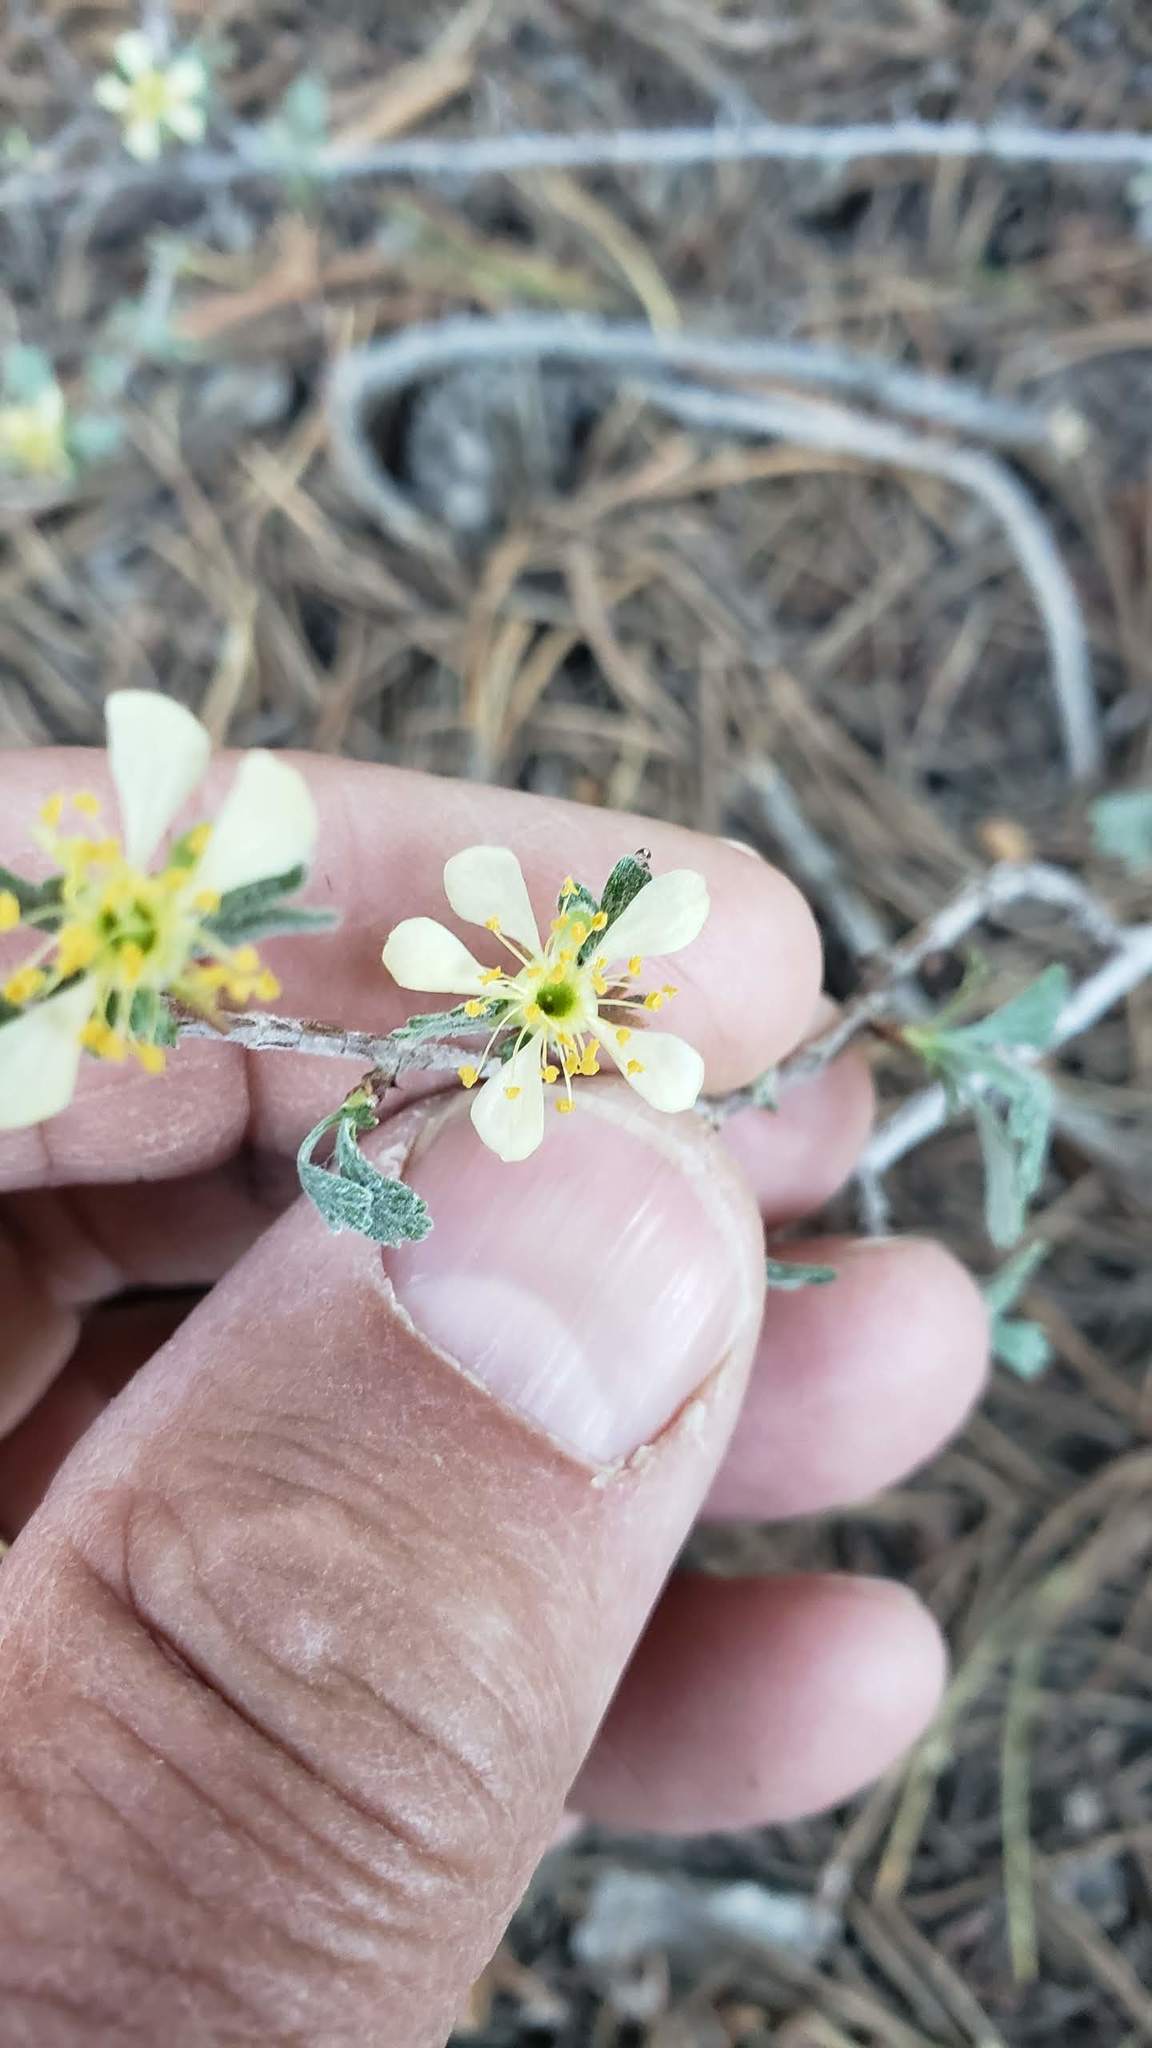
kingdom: Plantae
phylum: Tracheophyta
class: Magnoliopsida
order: Rosales
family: Rosaceae
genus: Purshia
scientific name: Purshia tridentata
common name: Antelope bitterbrush
